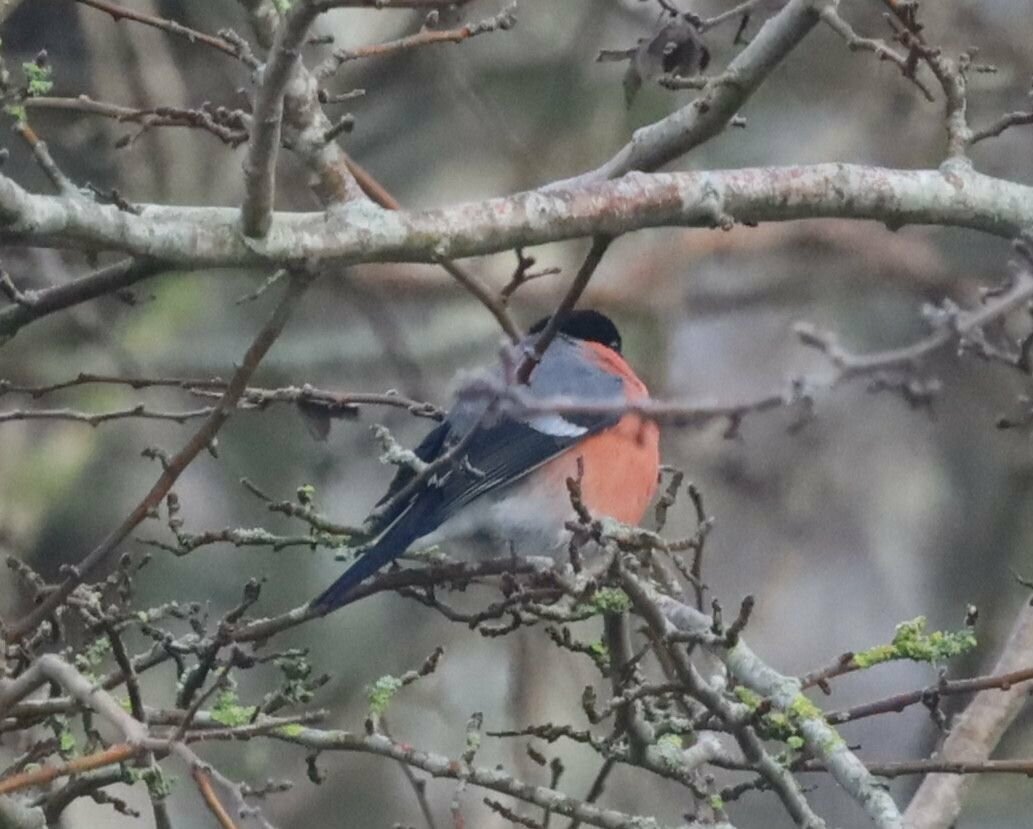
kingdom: Animalia
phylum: Chordata
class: Aves
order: Passeriformes
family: Fringillidae
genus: Pyrrhula
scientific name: Pyrrhula pyrrhula
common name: Eurasian bullfinch
